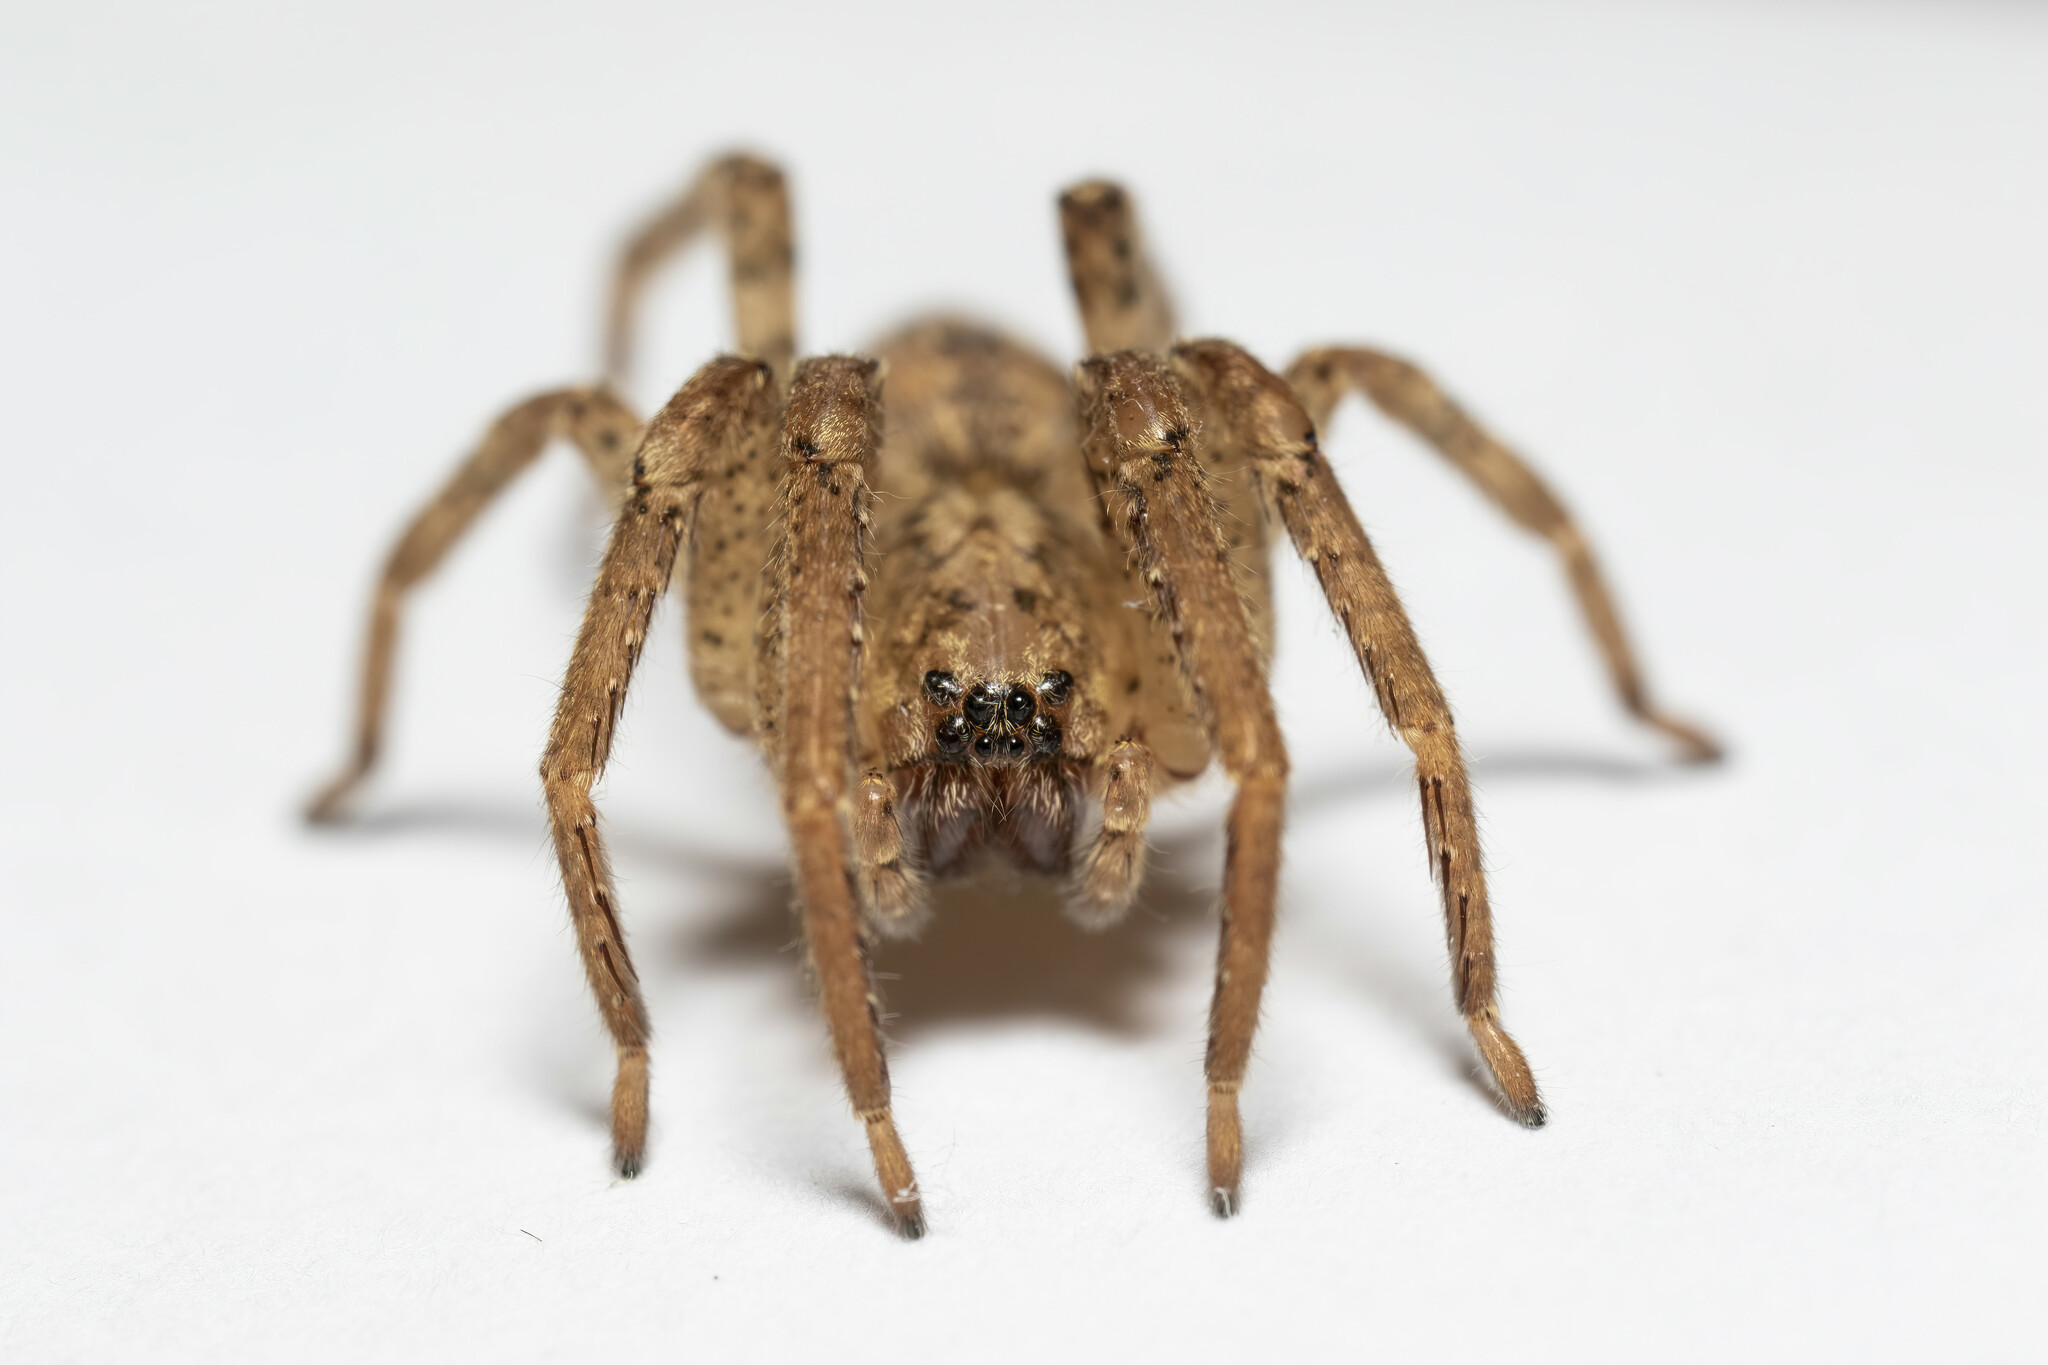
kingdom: Animalia
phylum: Arthropoda
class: Arachnida
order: Araneae
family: Zoropsidae
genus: Zoropsis
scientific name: Zoropsis spinimana
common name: Zoropsid spider
